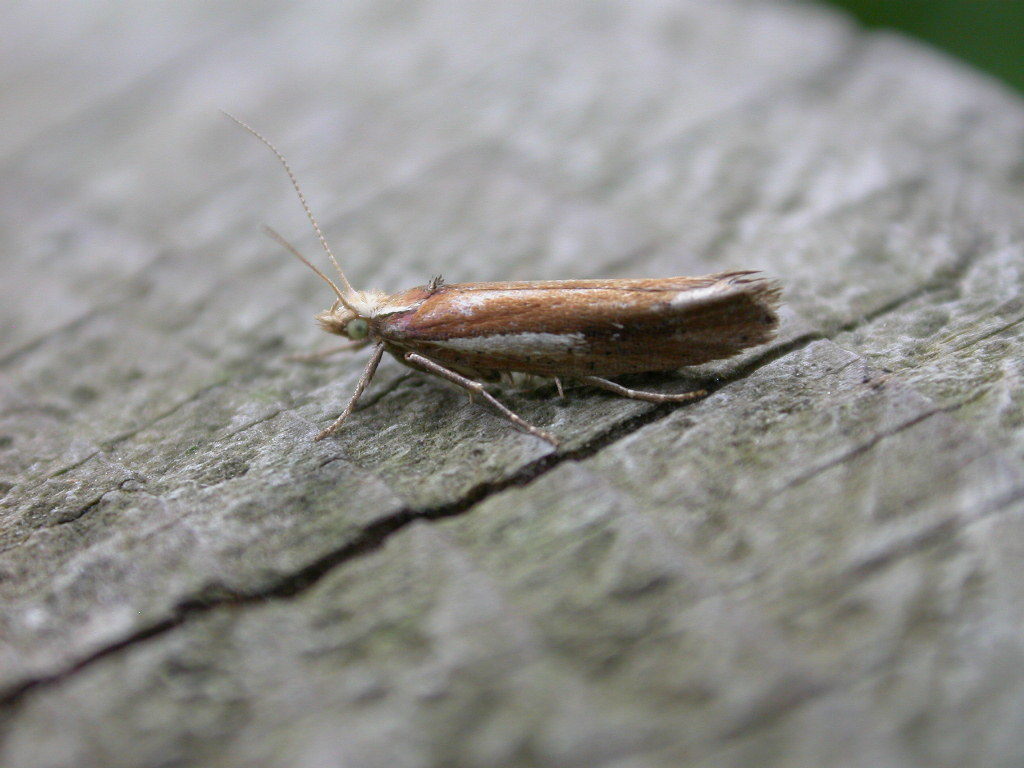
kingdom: Animalia
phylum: Arthropoda
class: Insecta
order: Lepidoptera
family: Ypsolophidae
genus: Ypsolopha
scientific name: Ypsolopha parenthesella
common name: White-shouldered smudge
